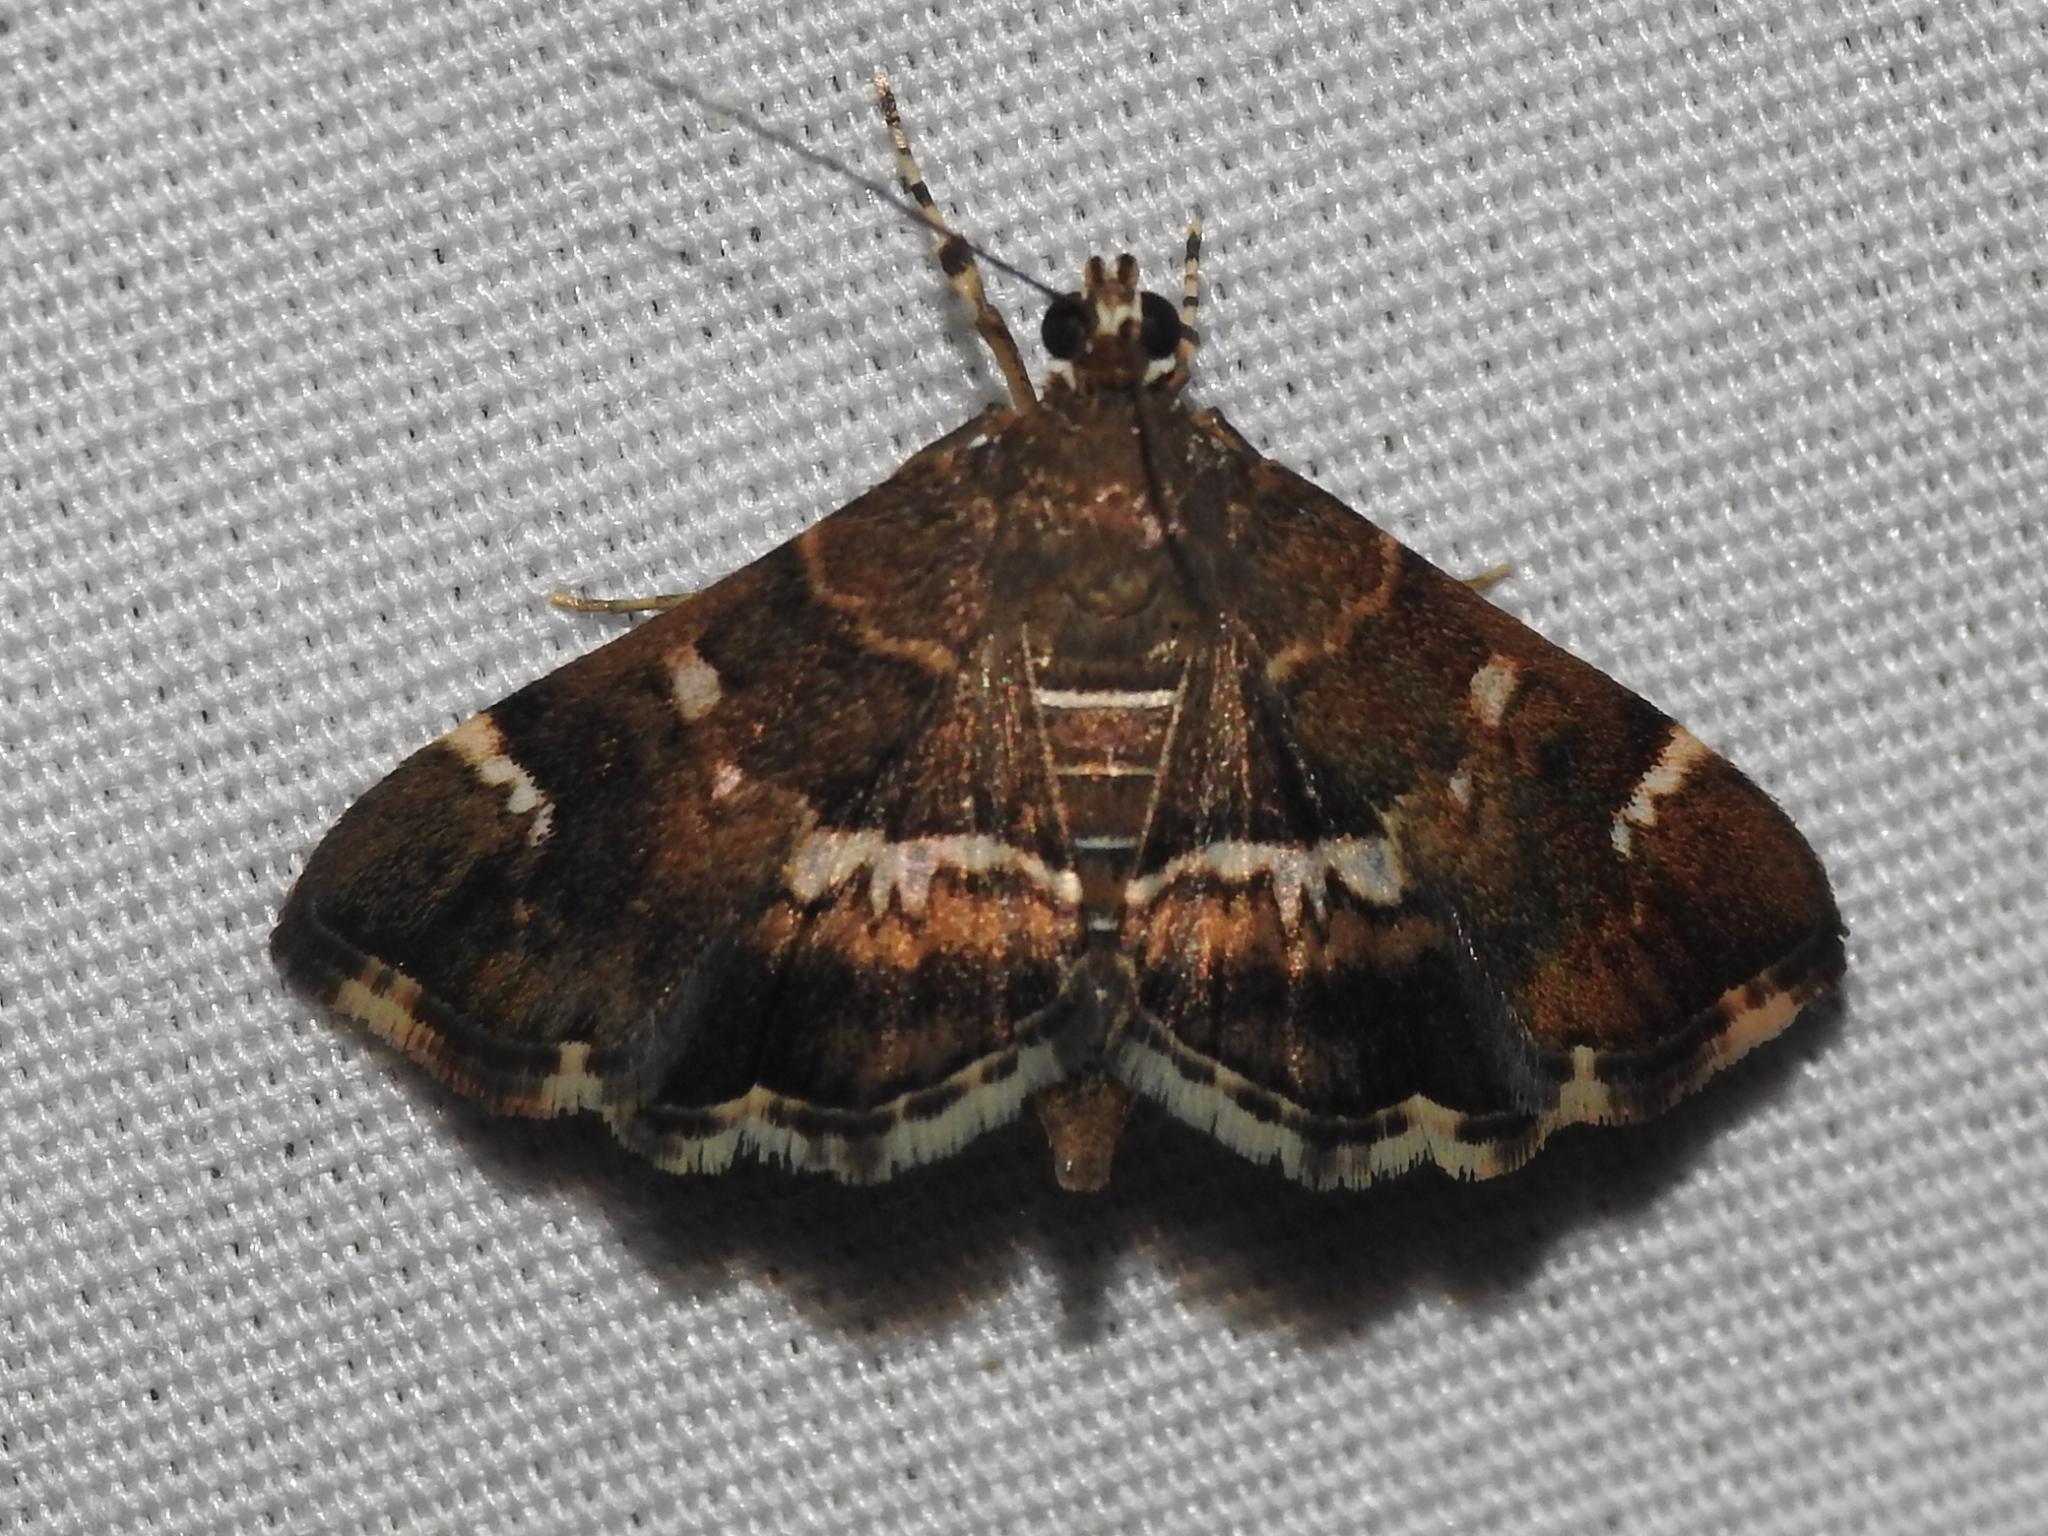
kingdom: Animalia
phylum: Arthropoda
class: Insecta
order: Lepidoptera
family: Crambidae
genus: Hymenia
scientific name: Hymenia perspectalis
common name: Spotted beet webworm
